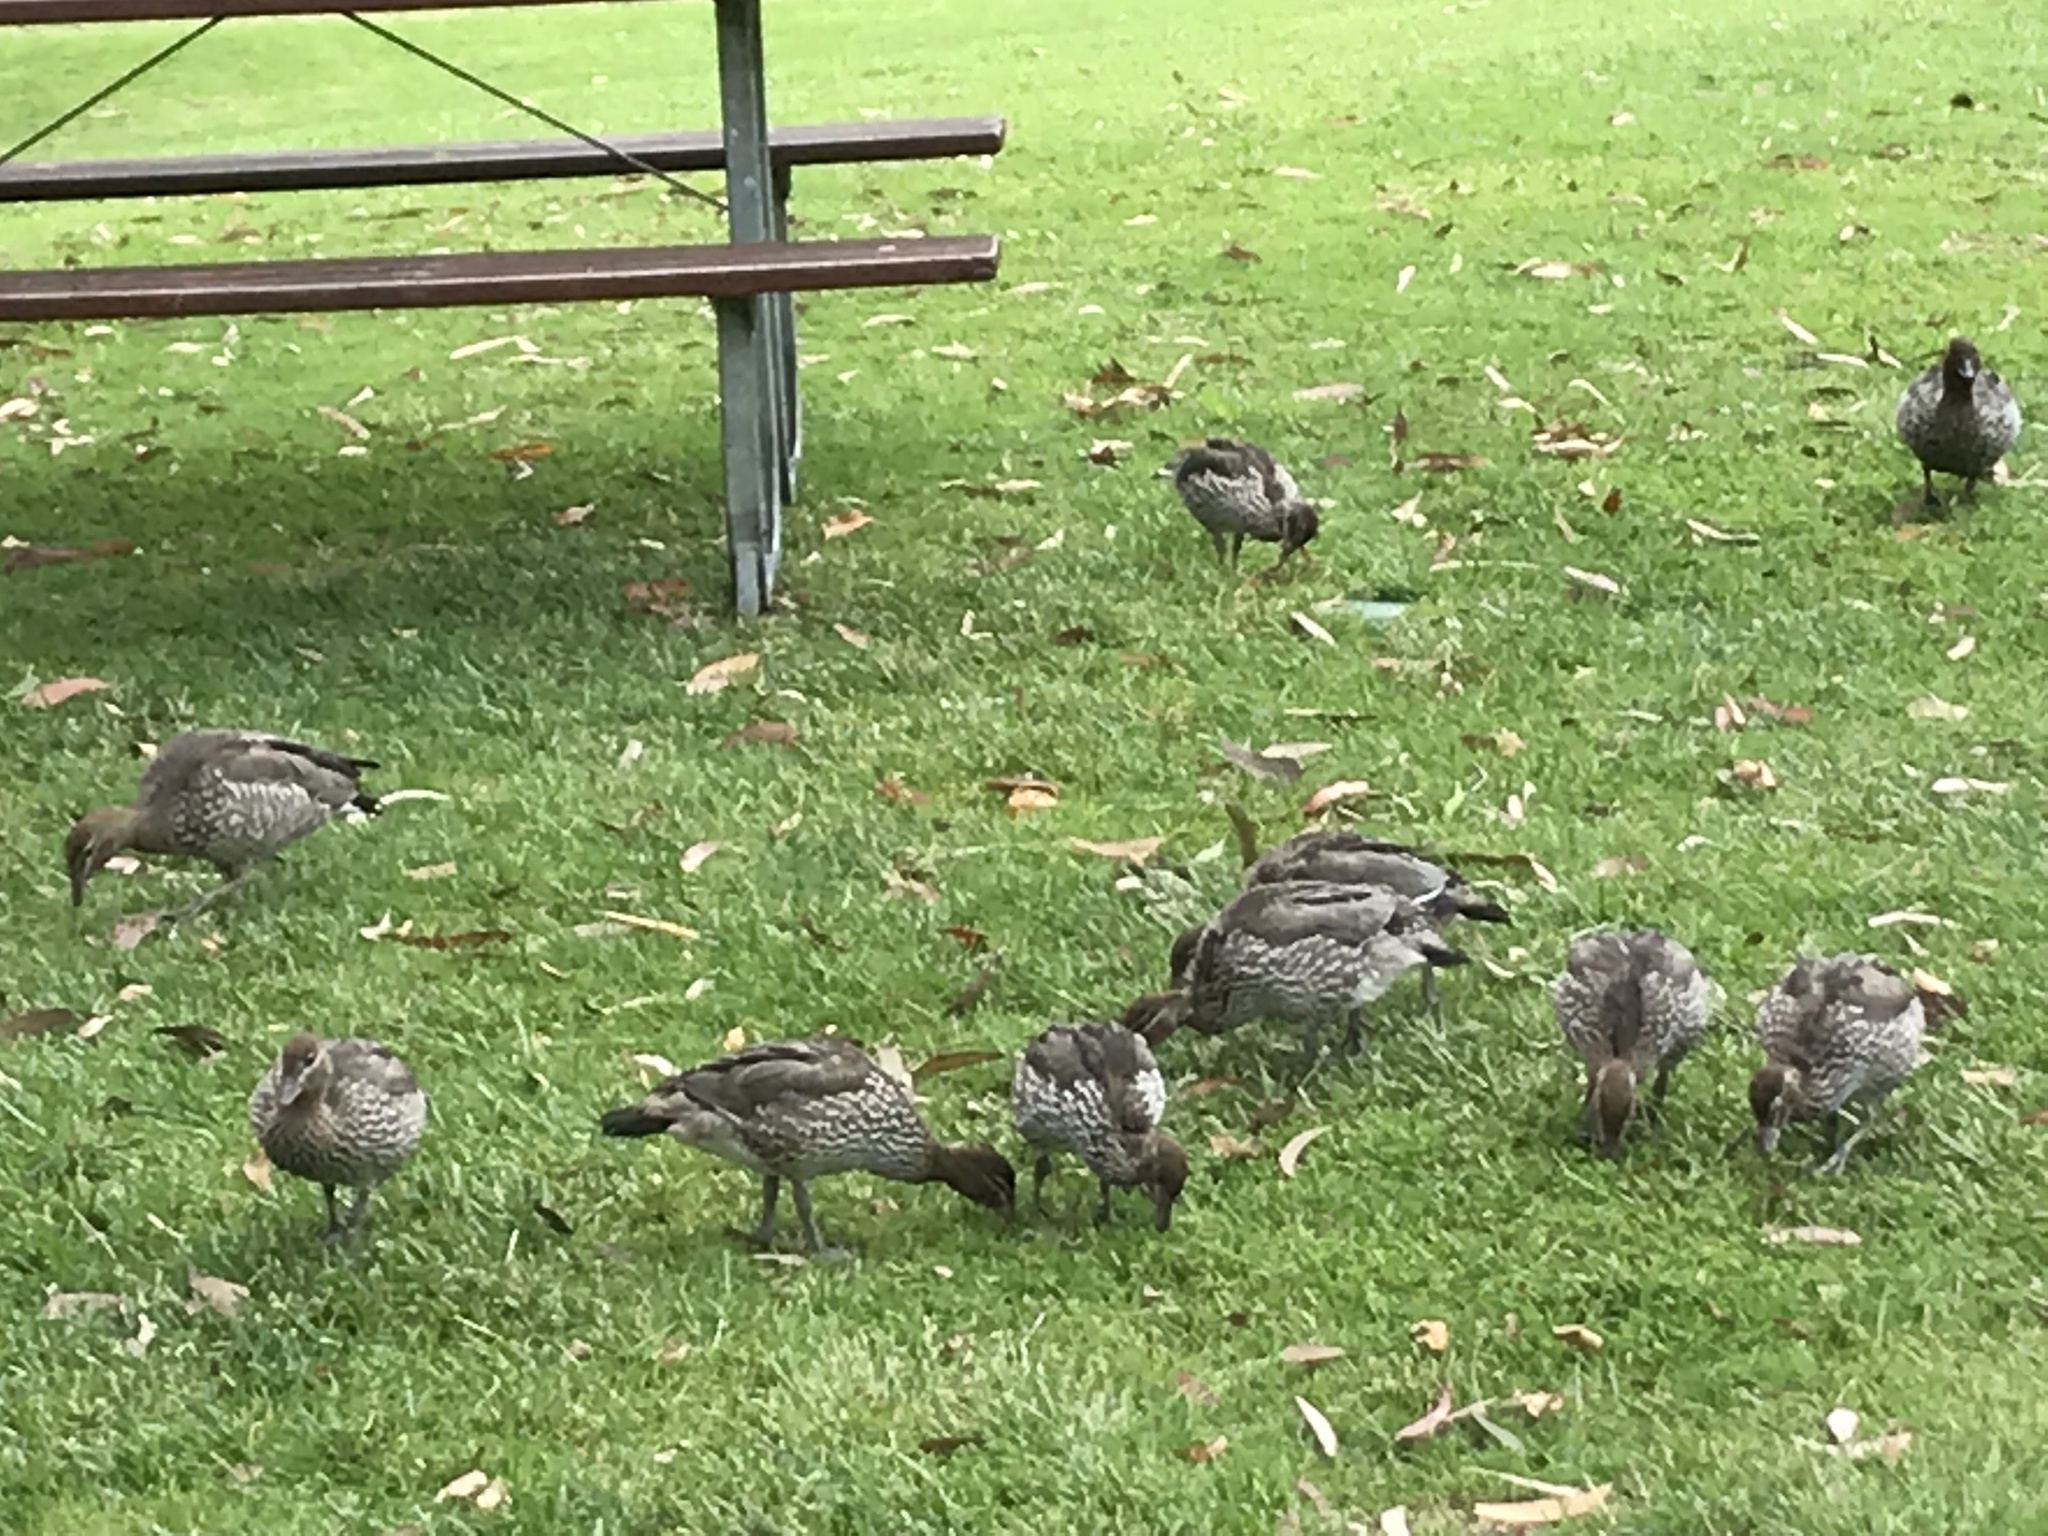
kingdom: Animalia
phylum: Chordata
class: Aves
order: Anseriformes
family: Anatidae
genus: Chenonetta
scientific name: Chenonetta jubata
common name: Maned duck
